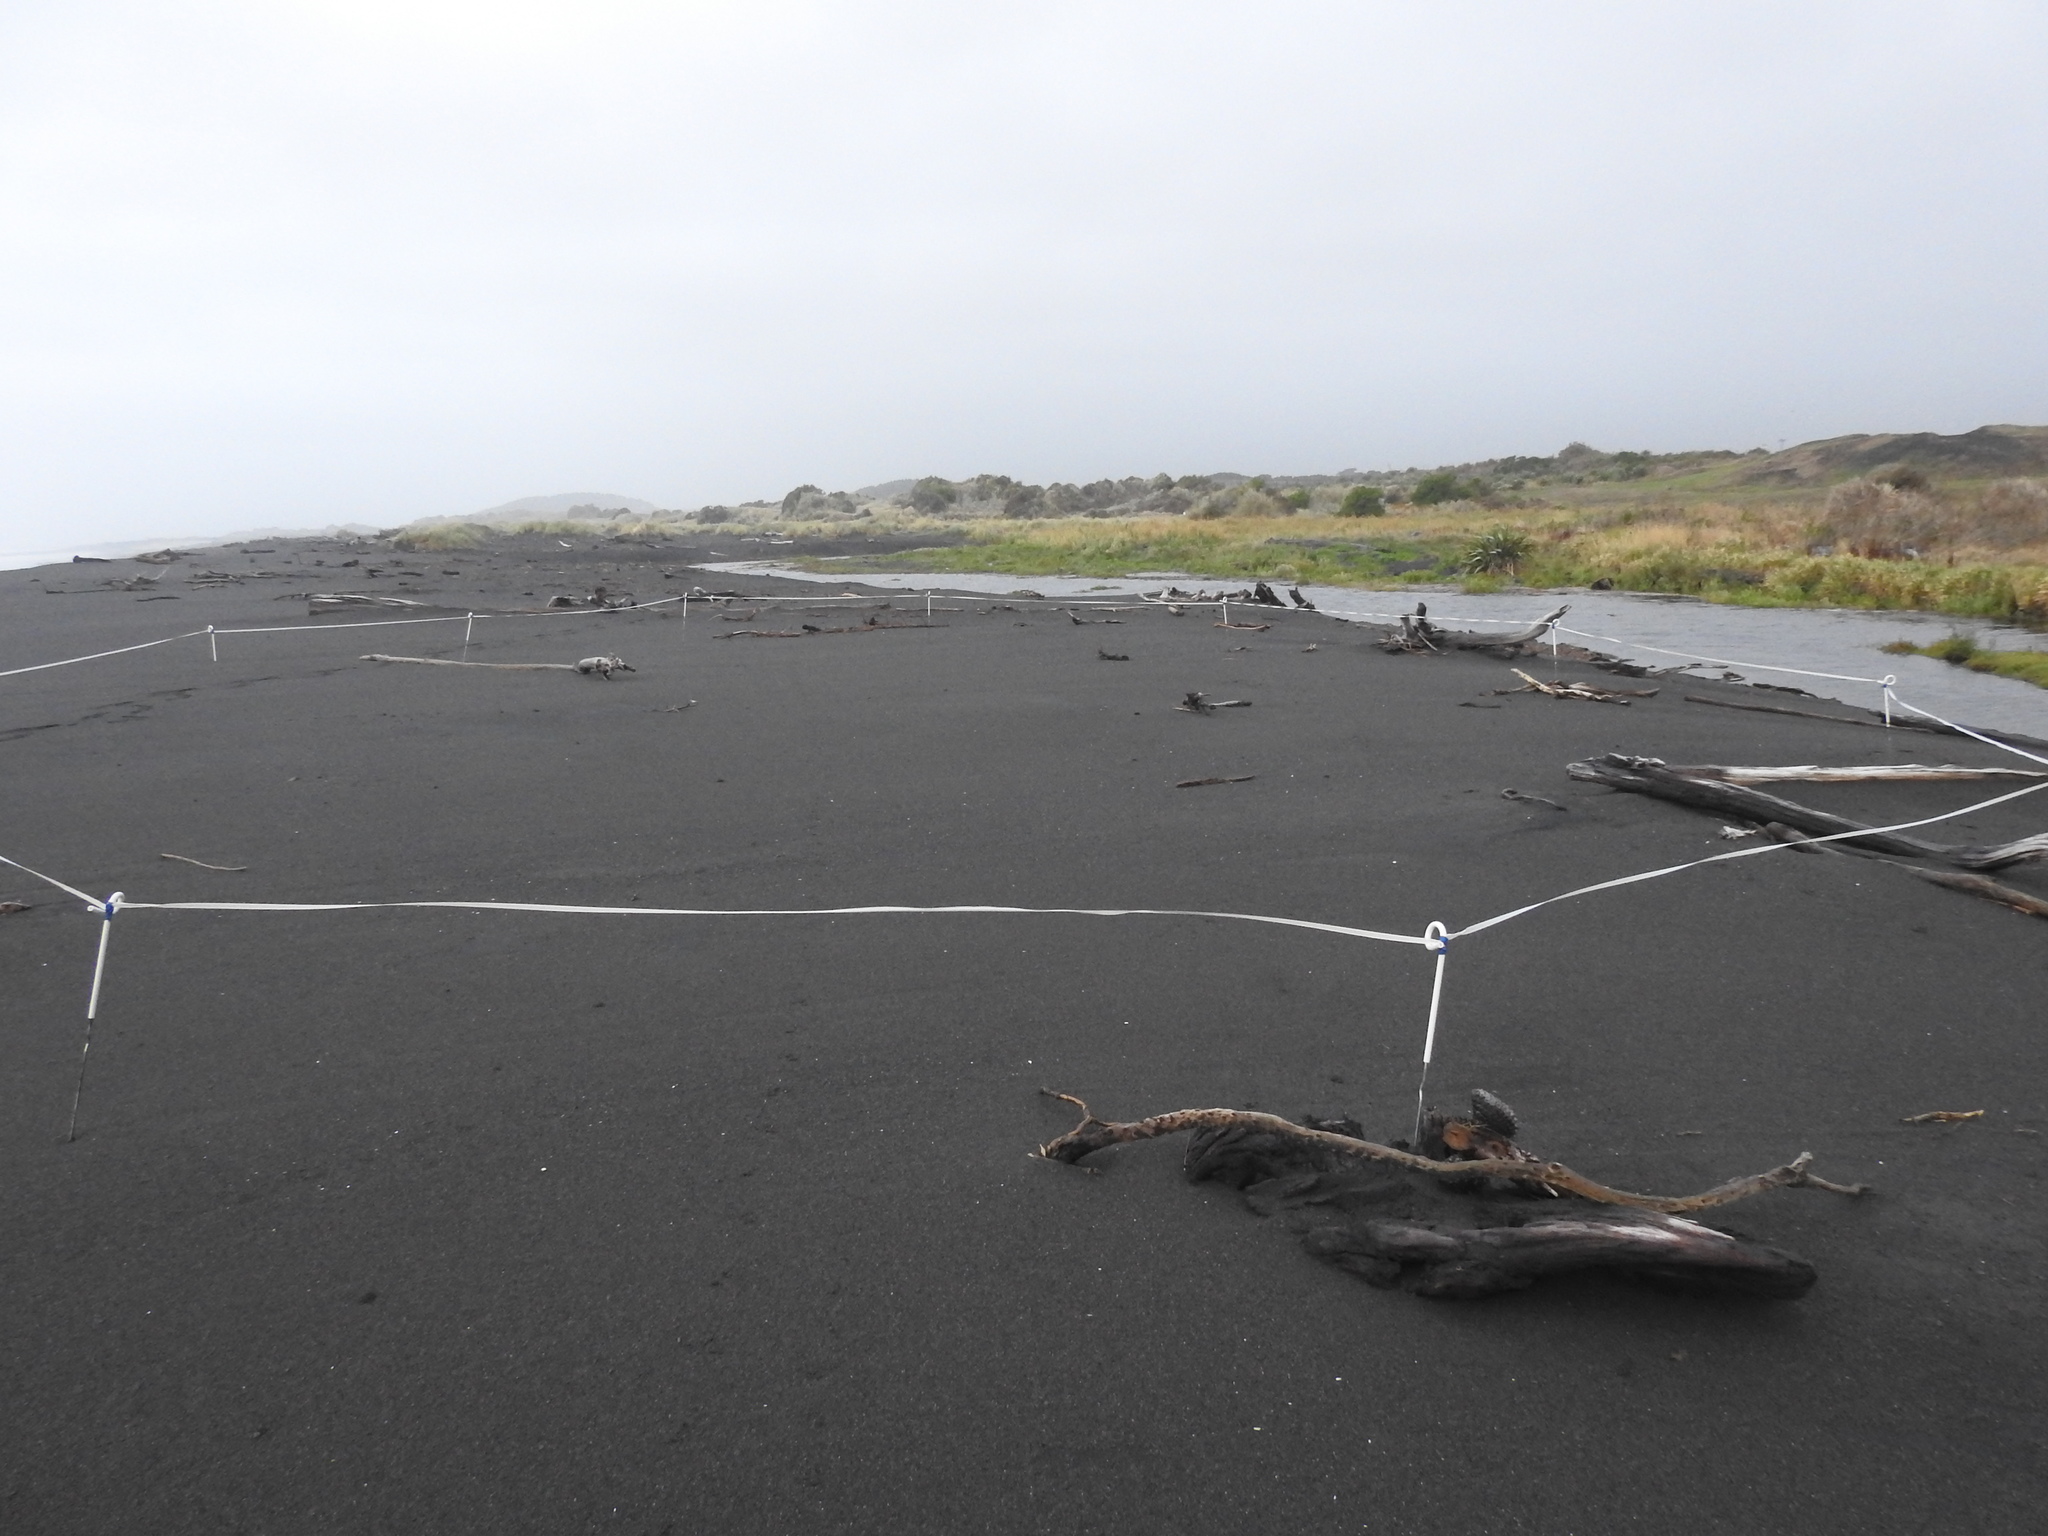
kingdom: Animalia
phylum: Chordata
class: Aves
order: Charadriiformes
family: Charadriidae
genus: Anarhynchus
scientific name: Anarhynchus
